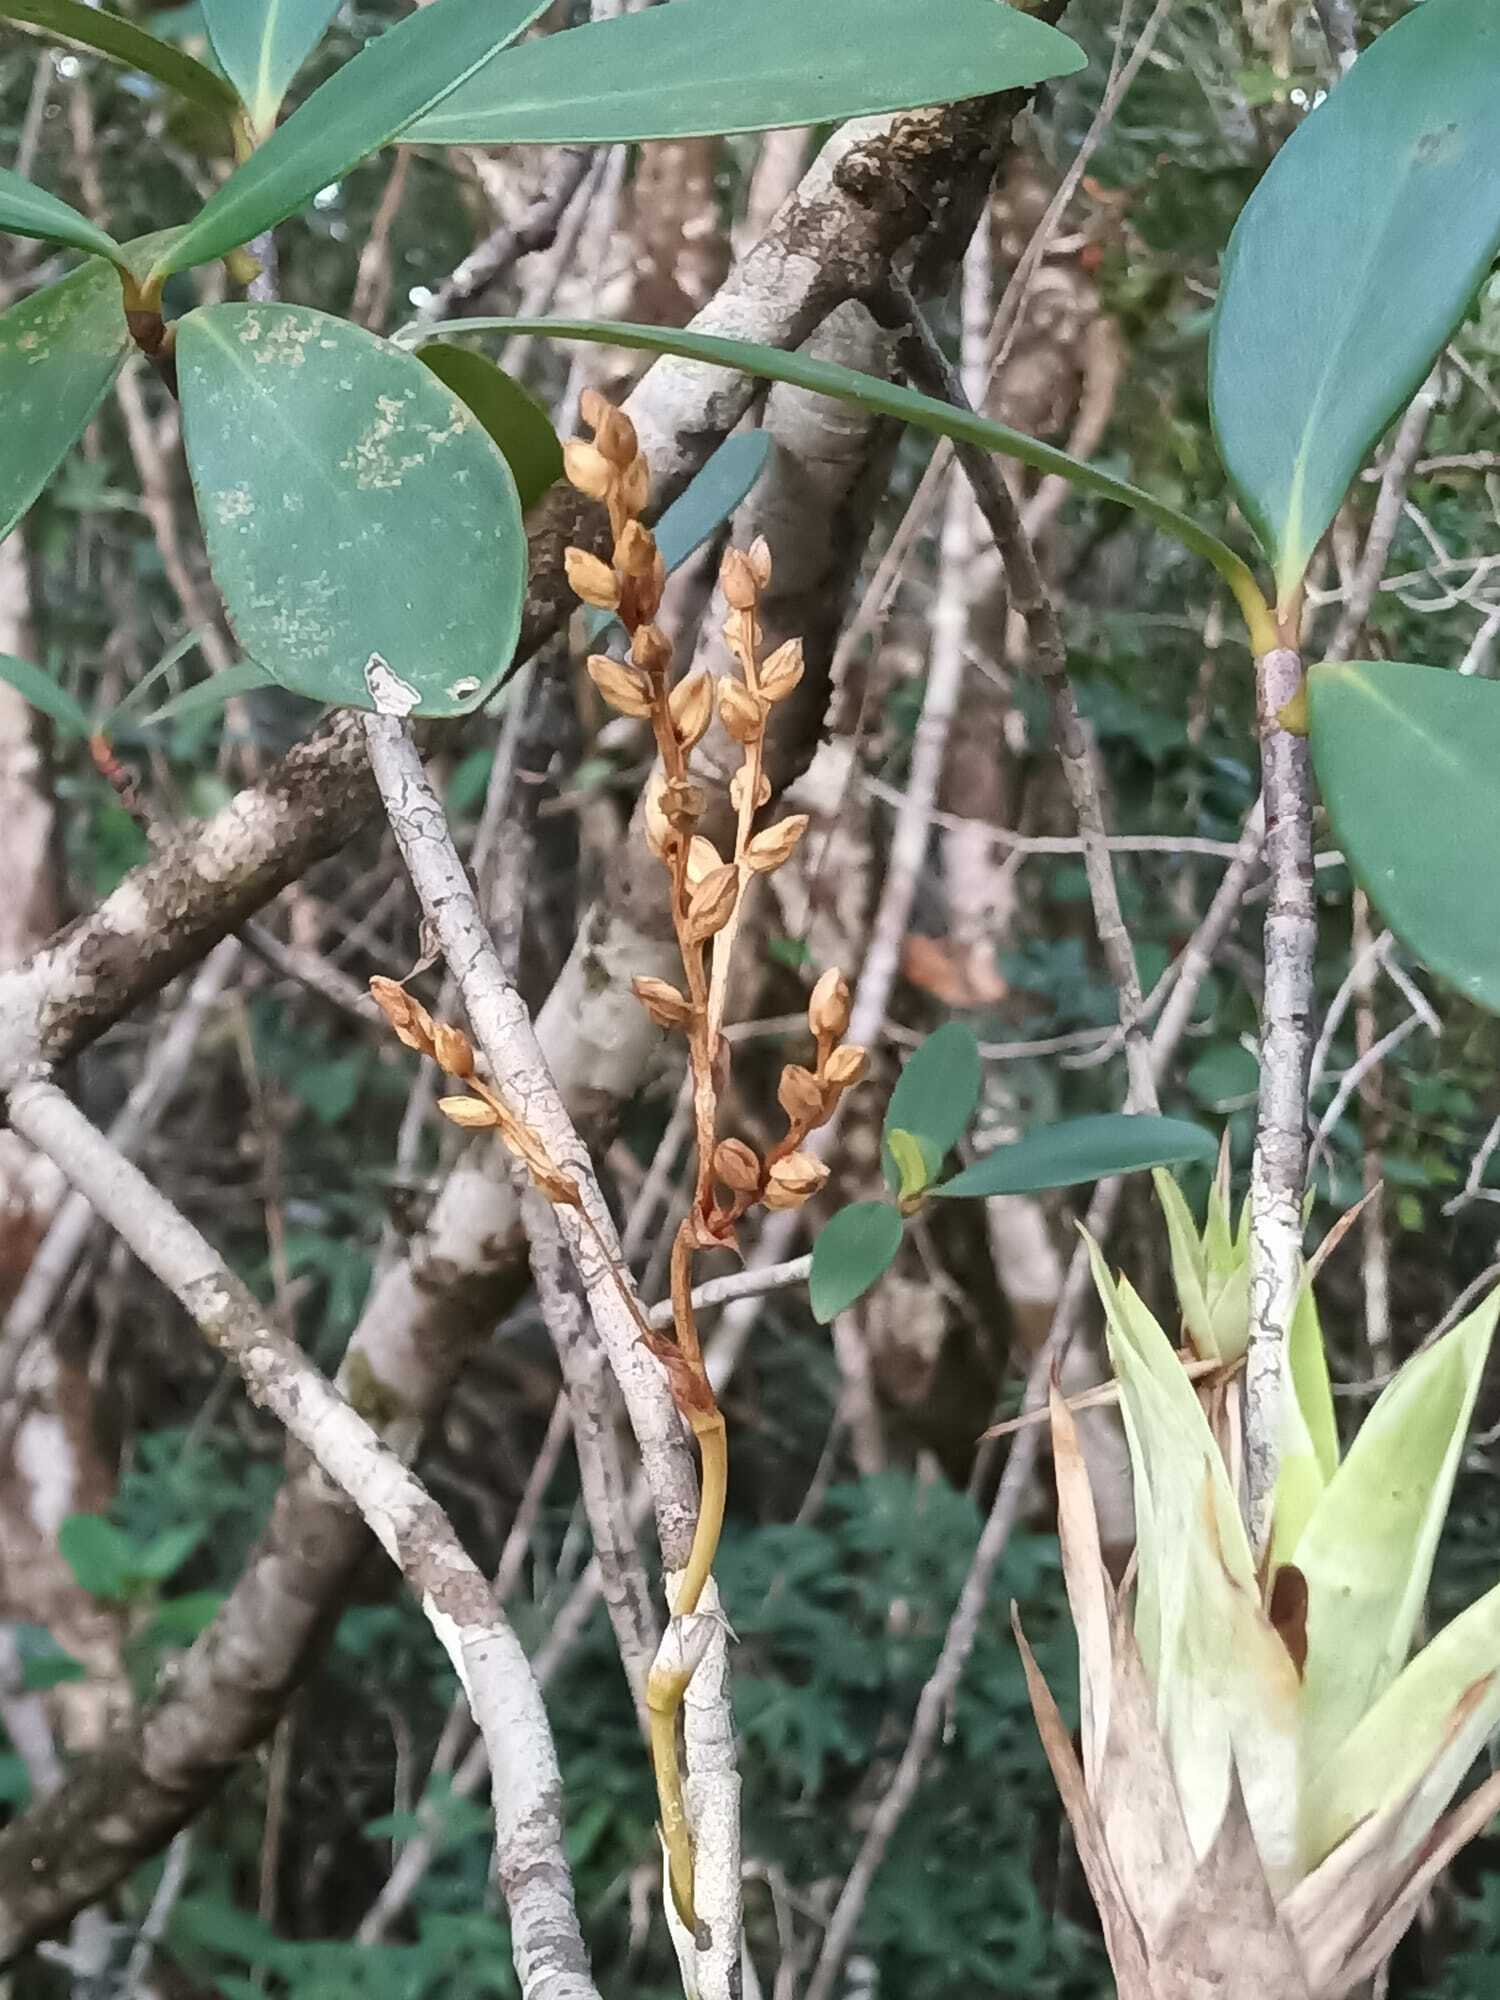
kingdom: Plantae
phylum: Tracheophyta
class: Liliopsida
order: Poales
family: Bromeliaceae
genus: Catopsis
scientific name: Catopsis berteroniana
